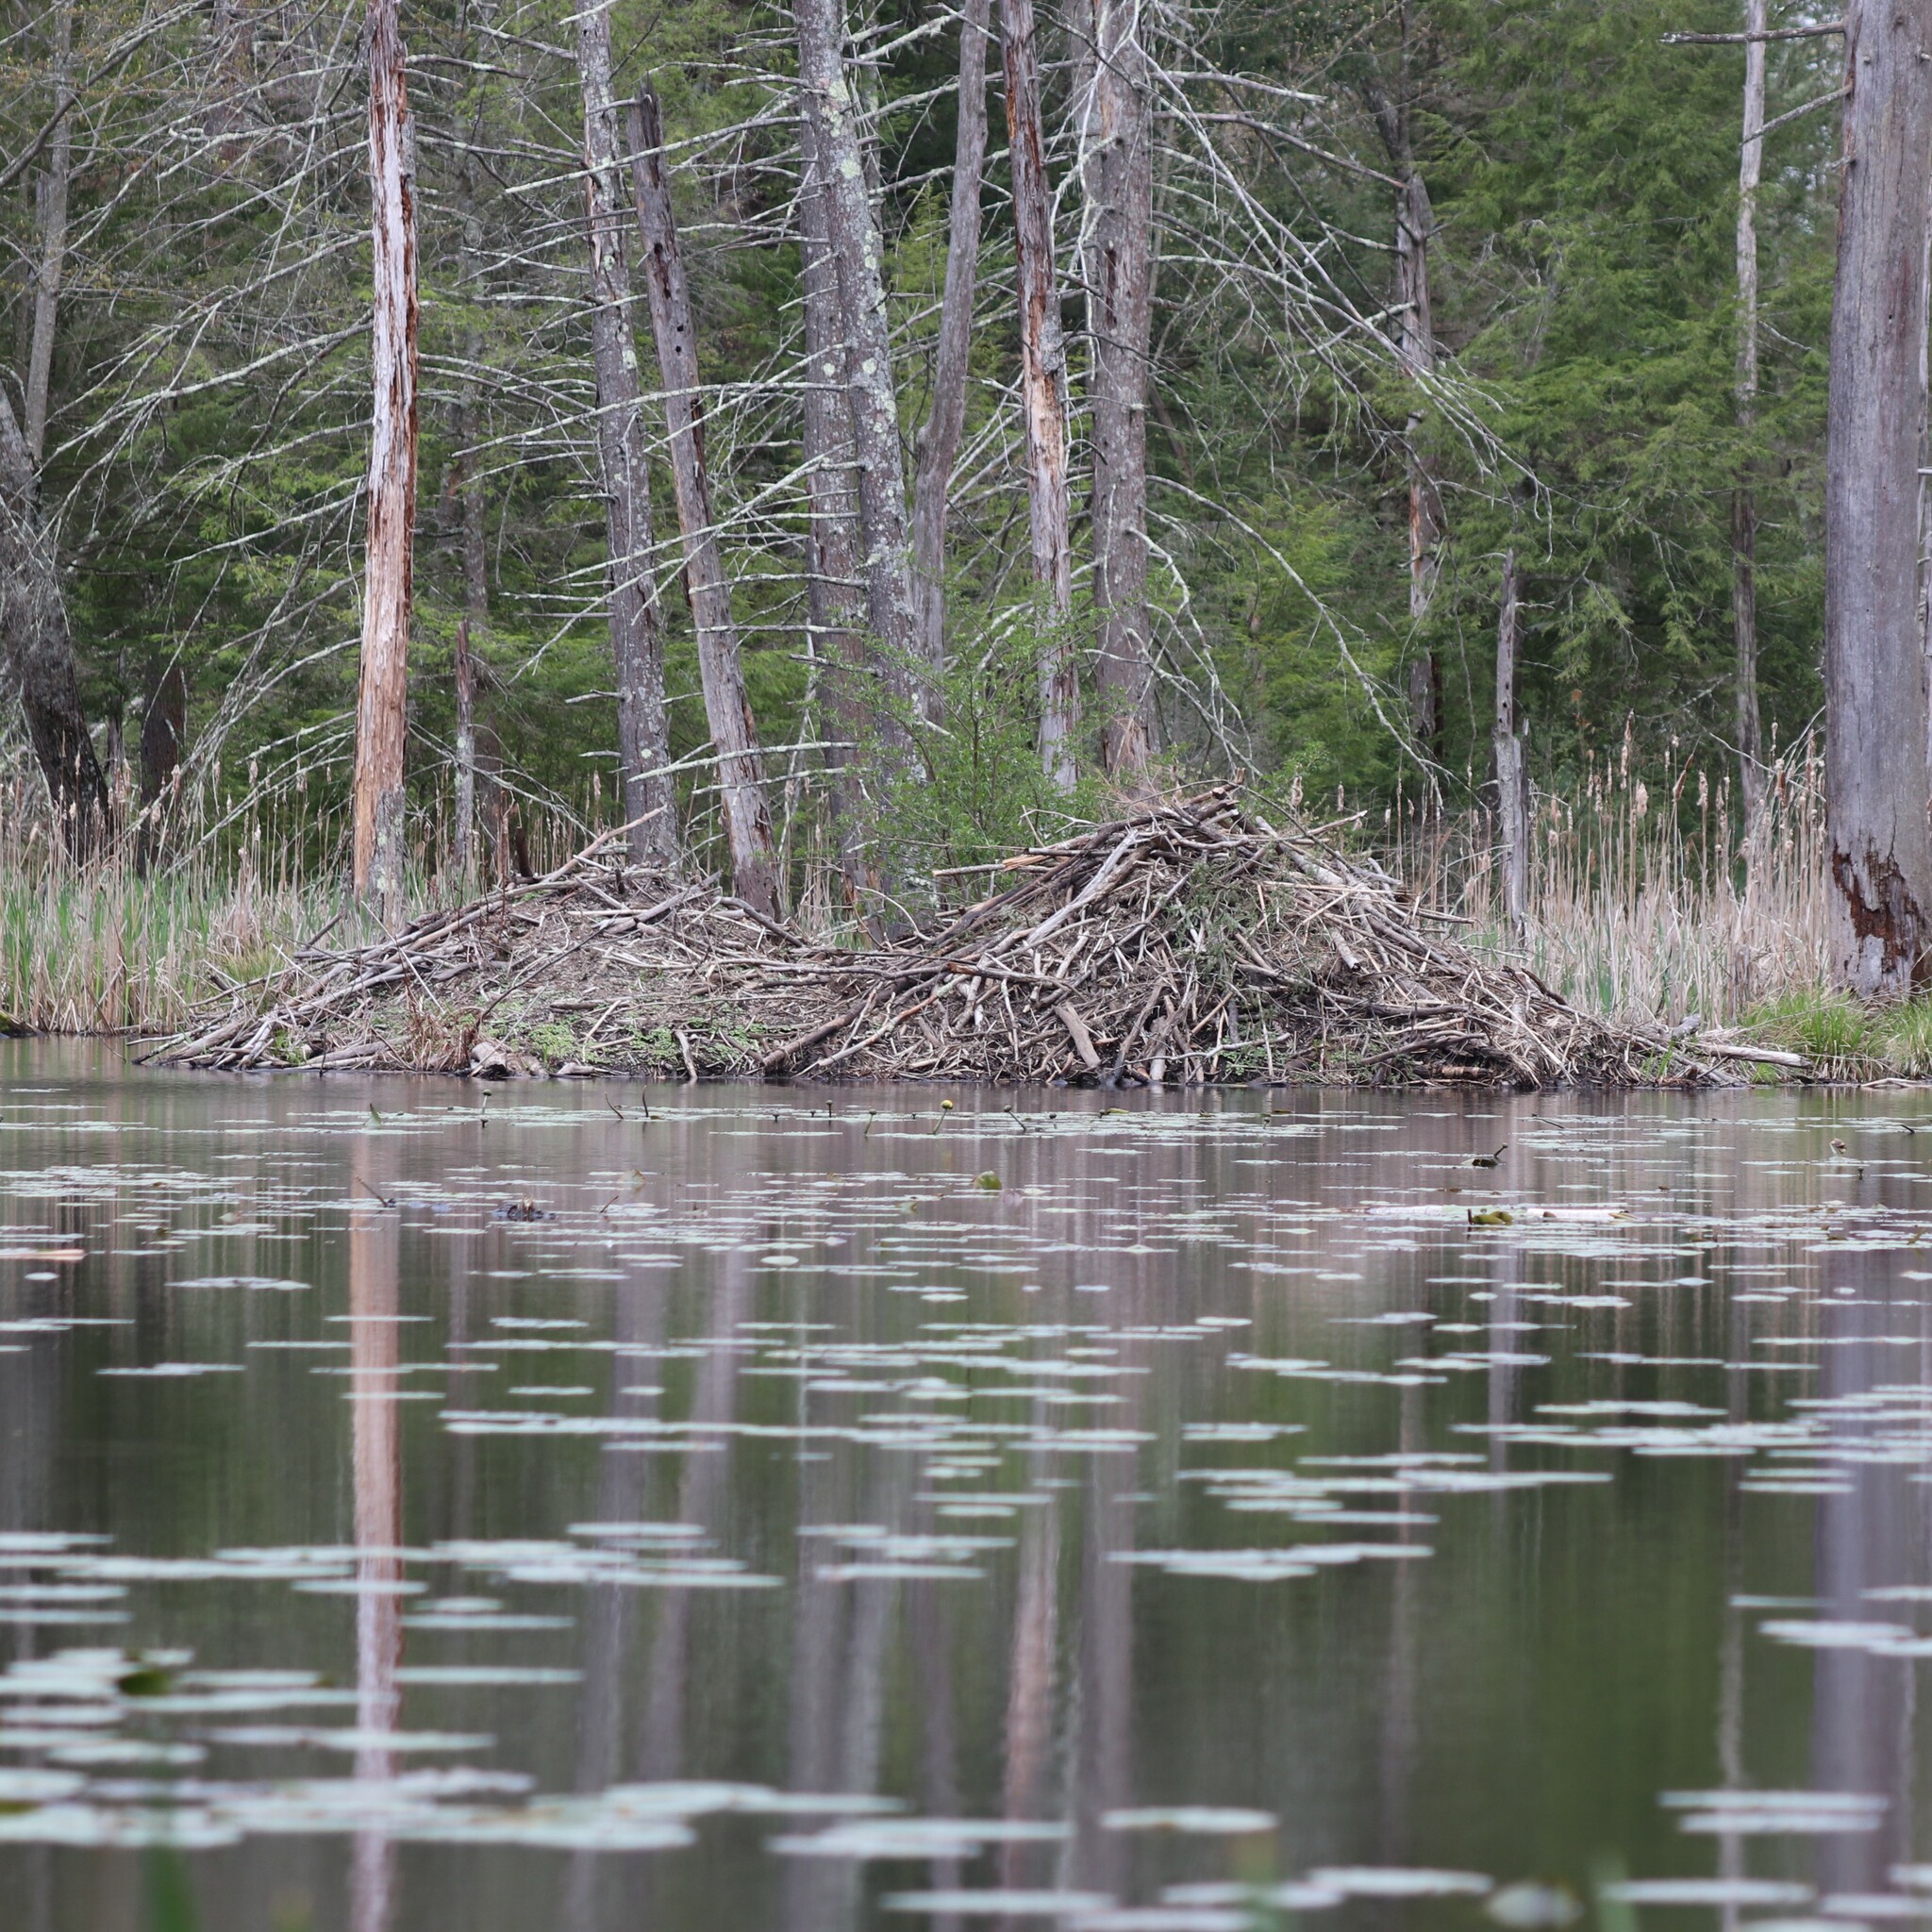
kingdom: Animalia
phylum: Chordata
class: Mammalia
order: Rodentia
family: Castoridae
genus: Castor
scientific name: Castor canadensis
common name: American beaver
